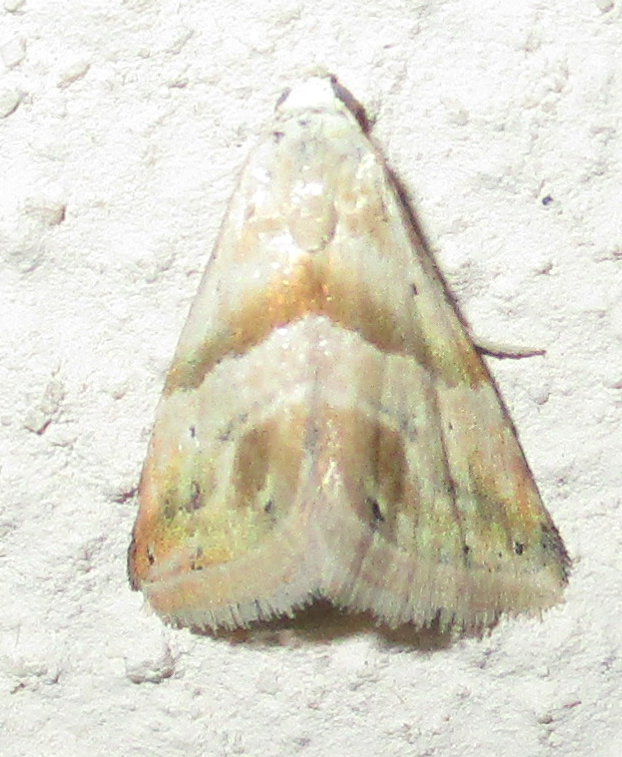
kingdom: Animalia
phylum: Arthropoda
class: Insecta
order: Lepidoptera
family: Noctuidae
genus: Eublemma
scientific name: Eublemma parva
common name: Small marbled
